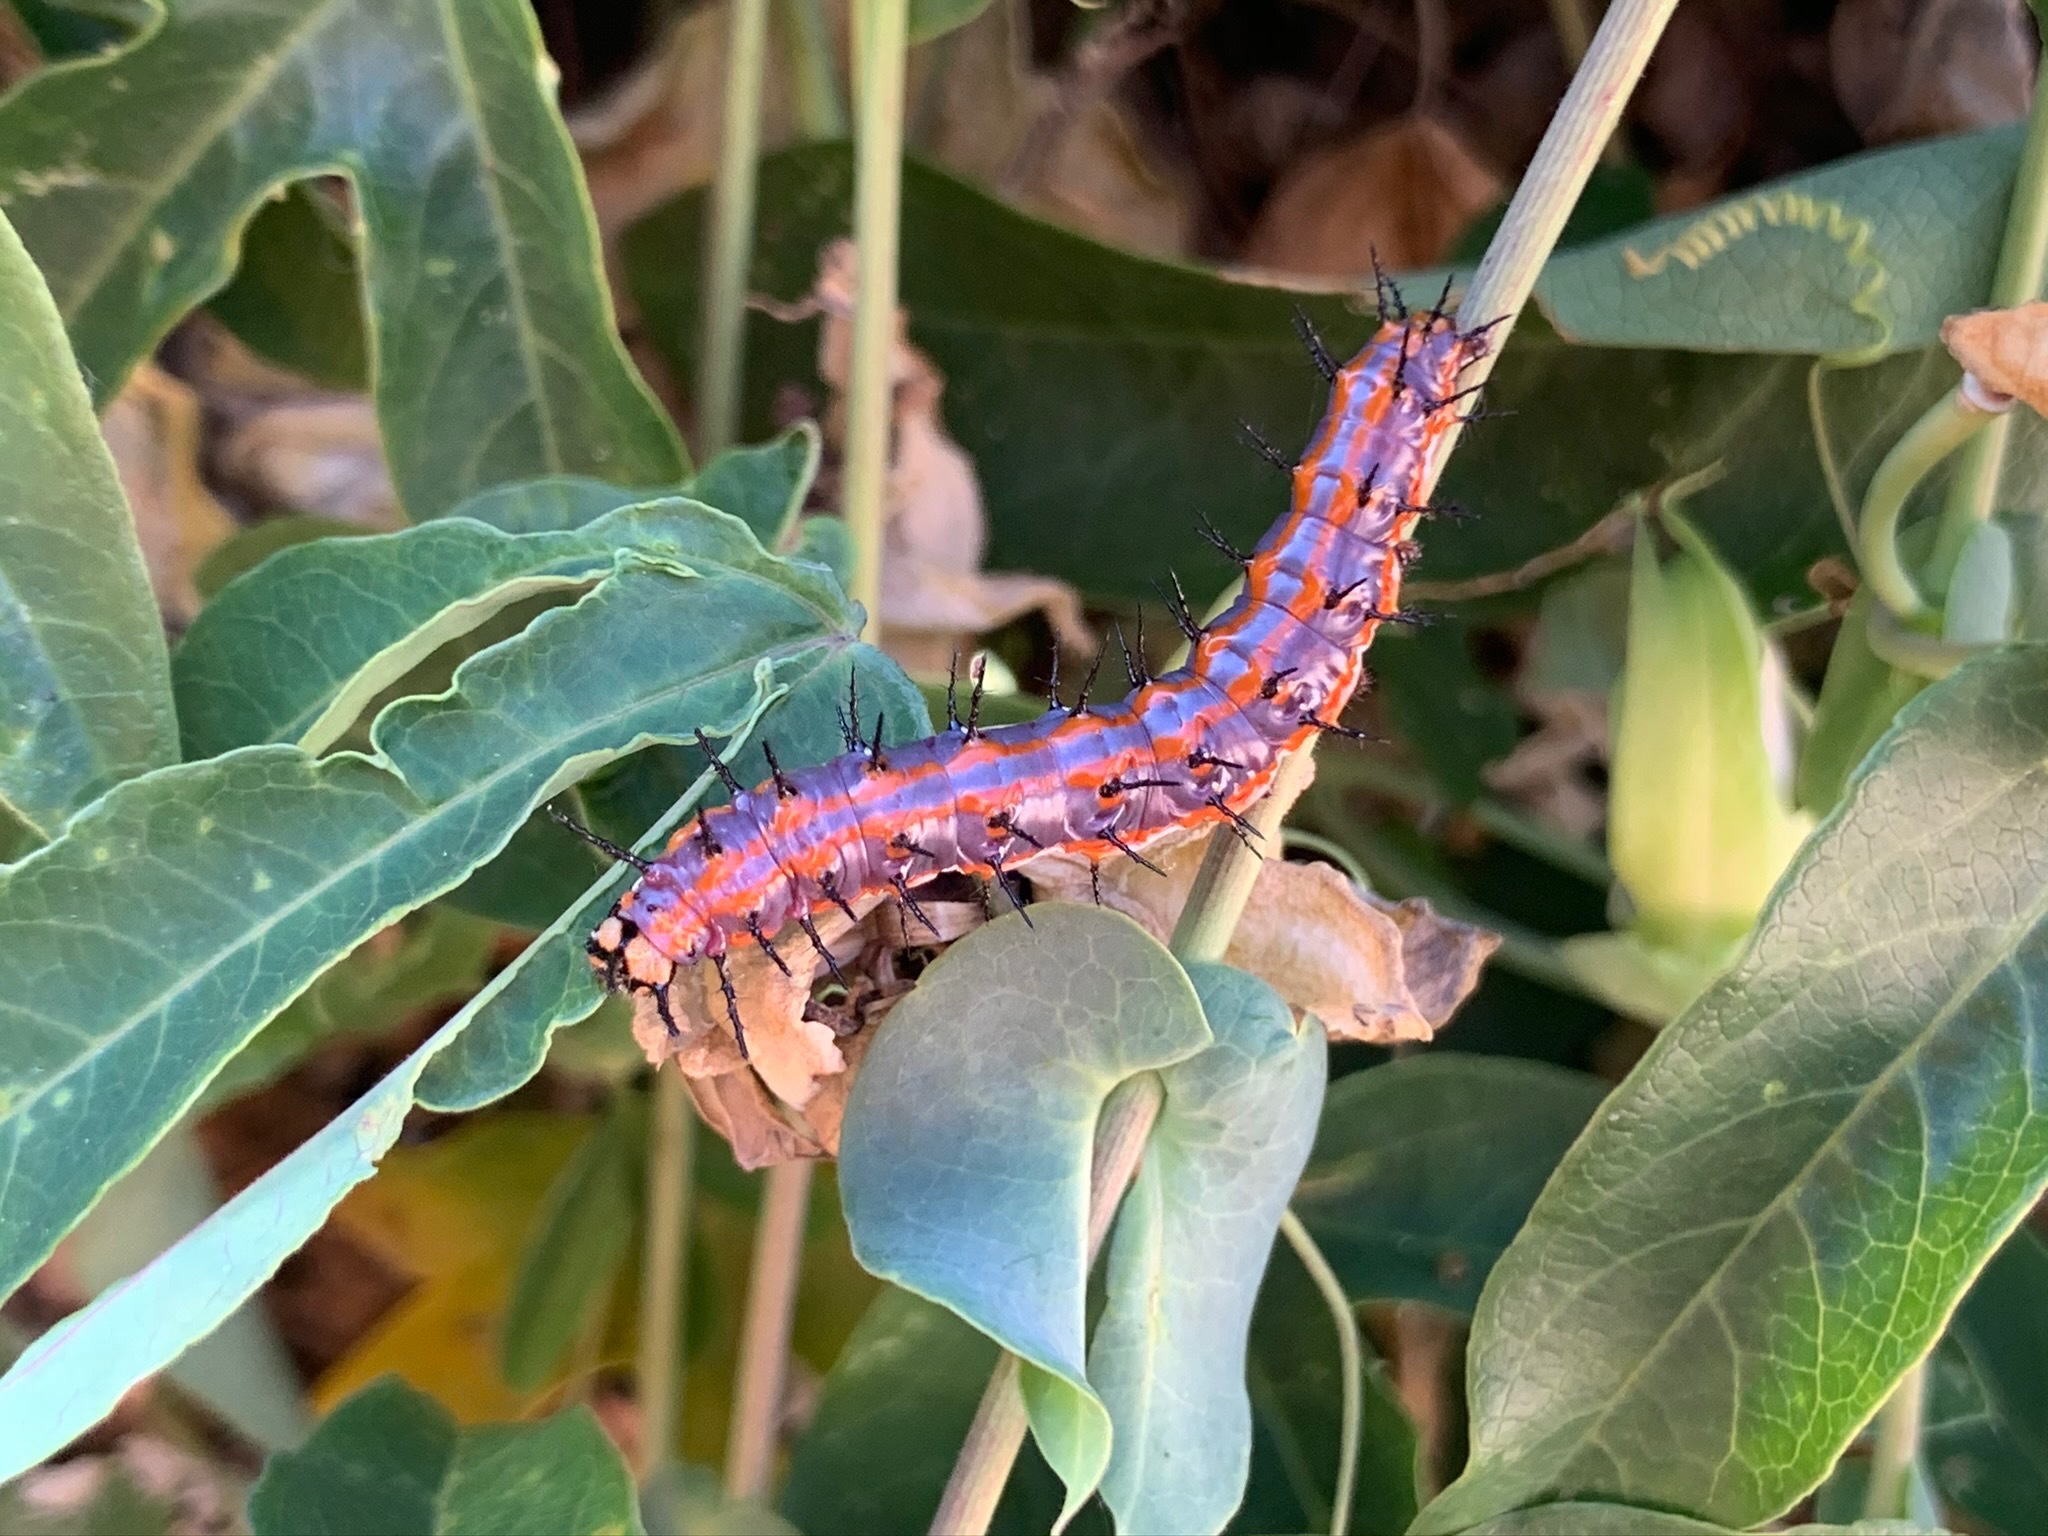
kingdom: Animalia
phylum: Arthropoda
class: Insecta
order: Lepidoptera
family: Nymphalidae
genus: Dione
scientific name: Dione vanillae
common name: Gulf fritillary
